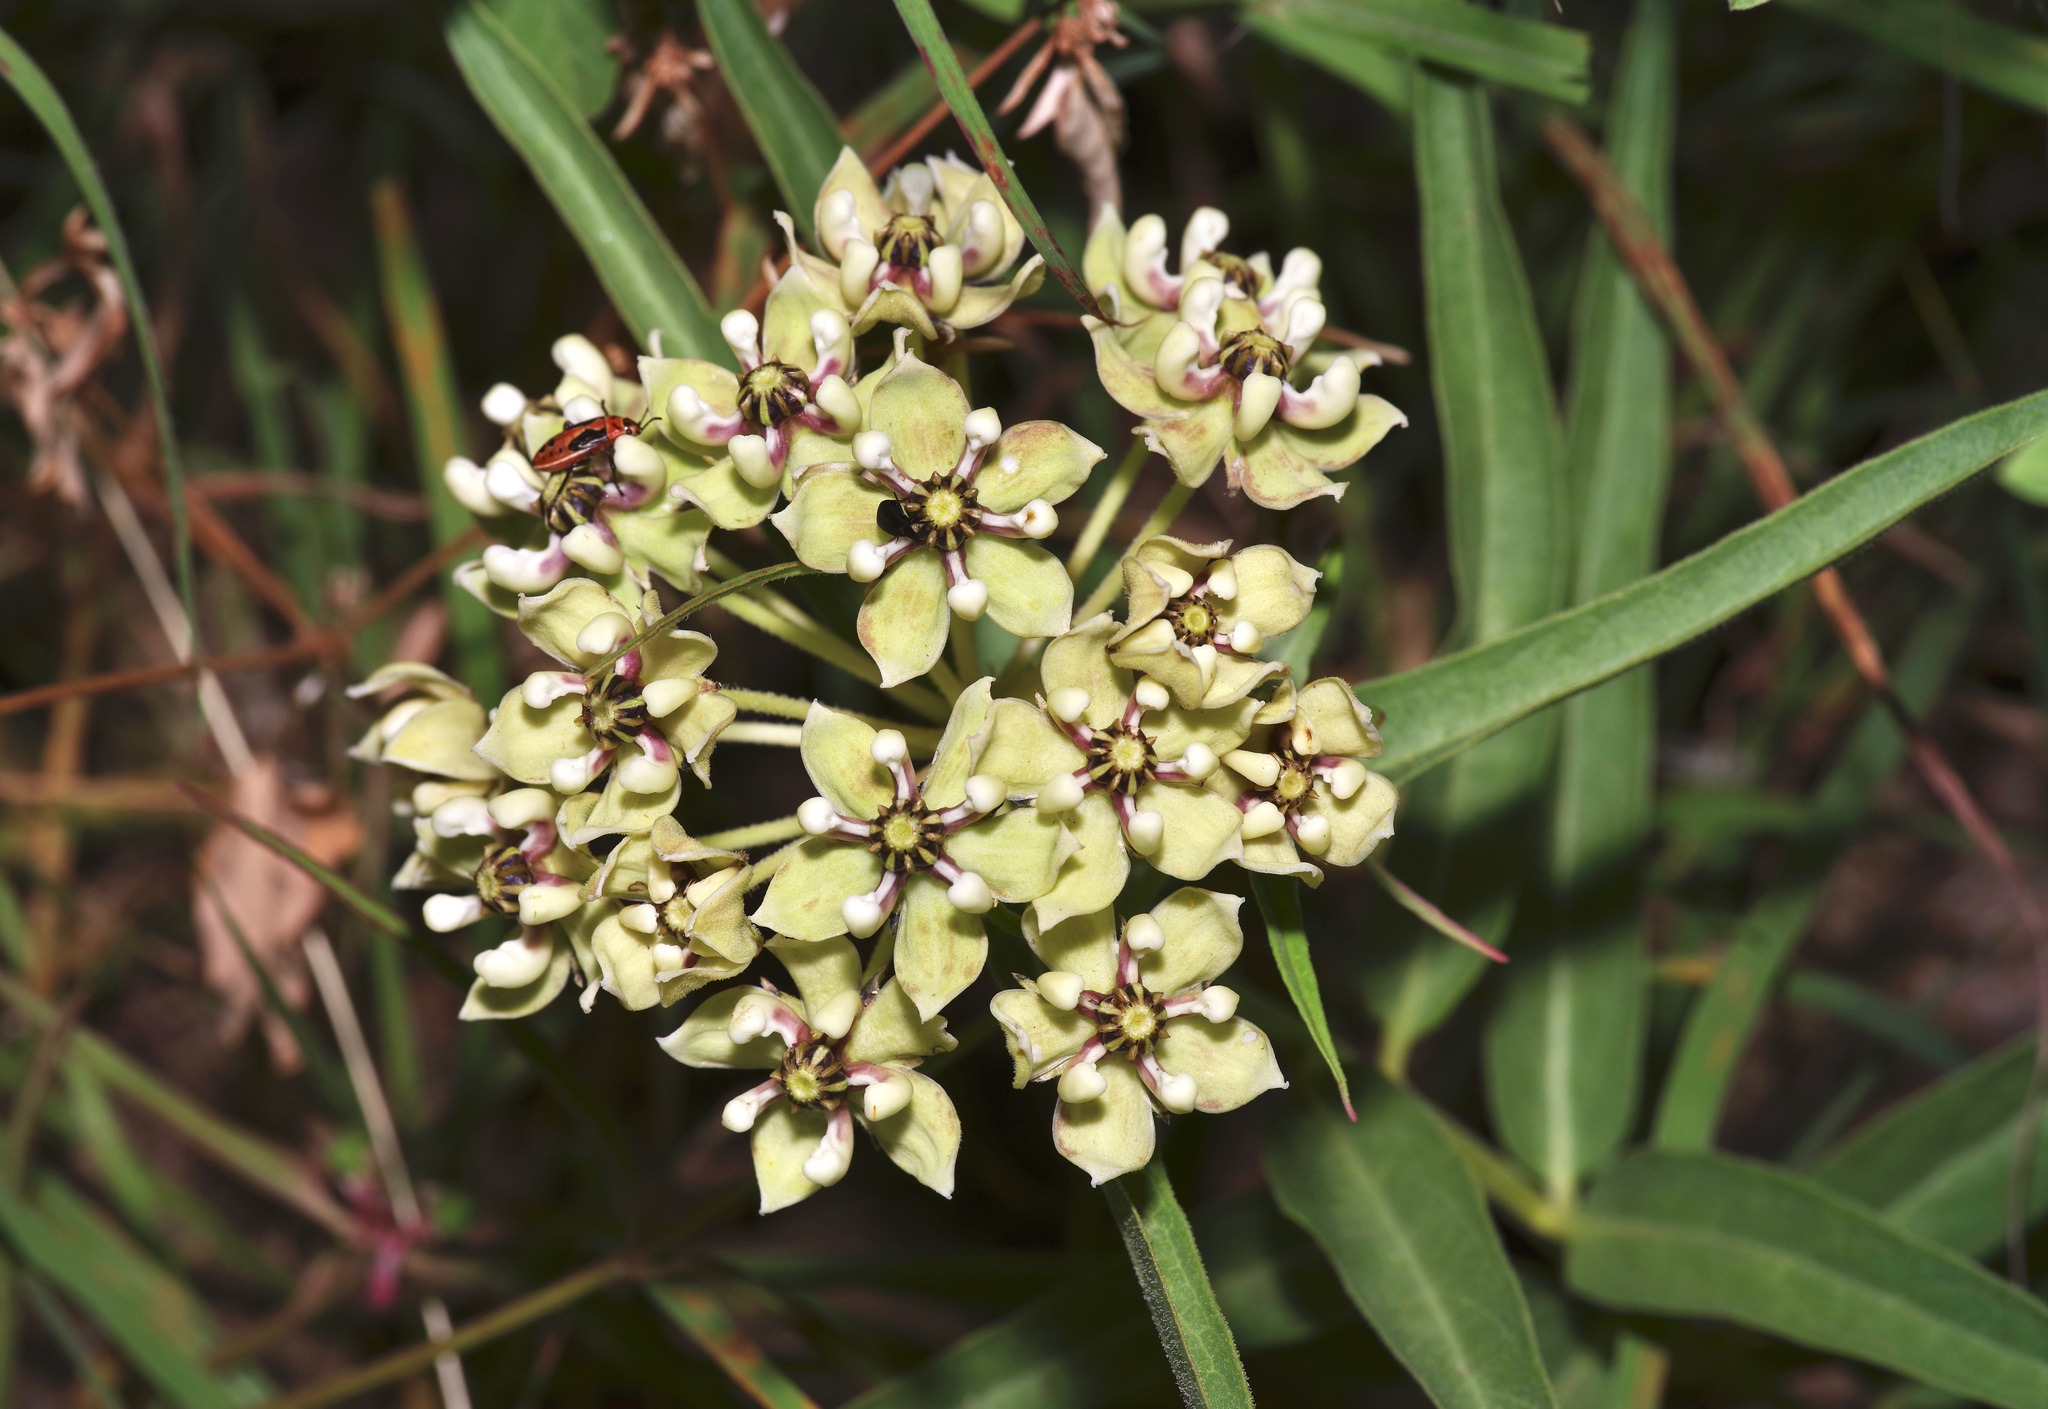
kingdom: Plantae
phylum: Tracheophyta
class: Magnoliopsida
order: Gentianales
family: Apocynaceae
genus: Asclepias
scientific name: Asclepias asperula
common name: Antelope horns
